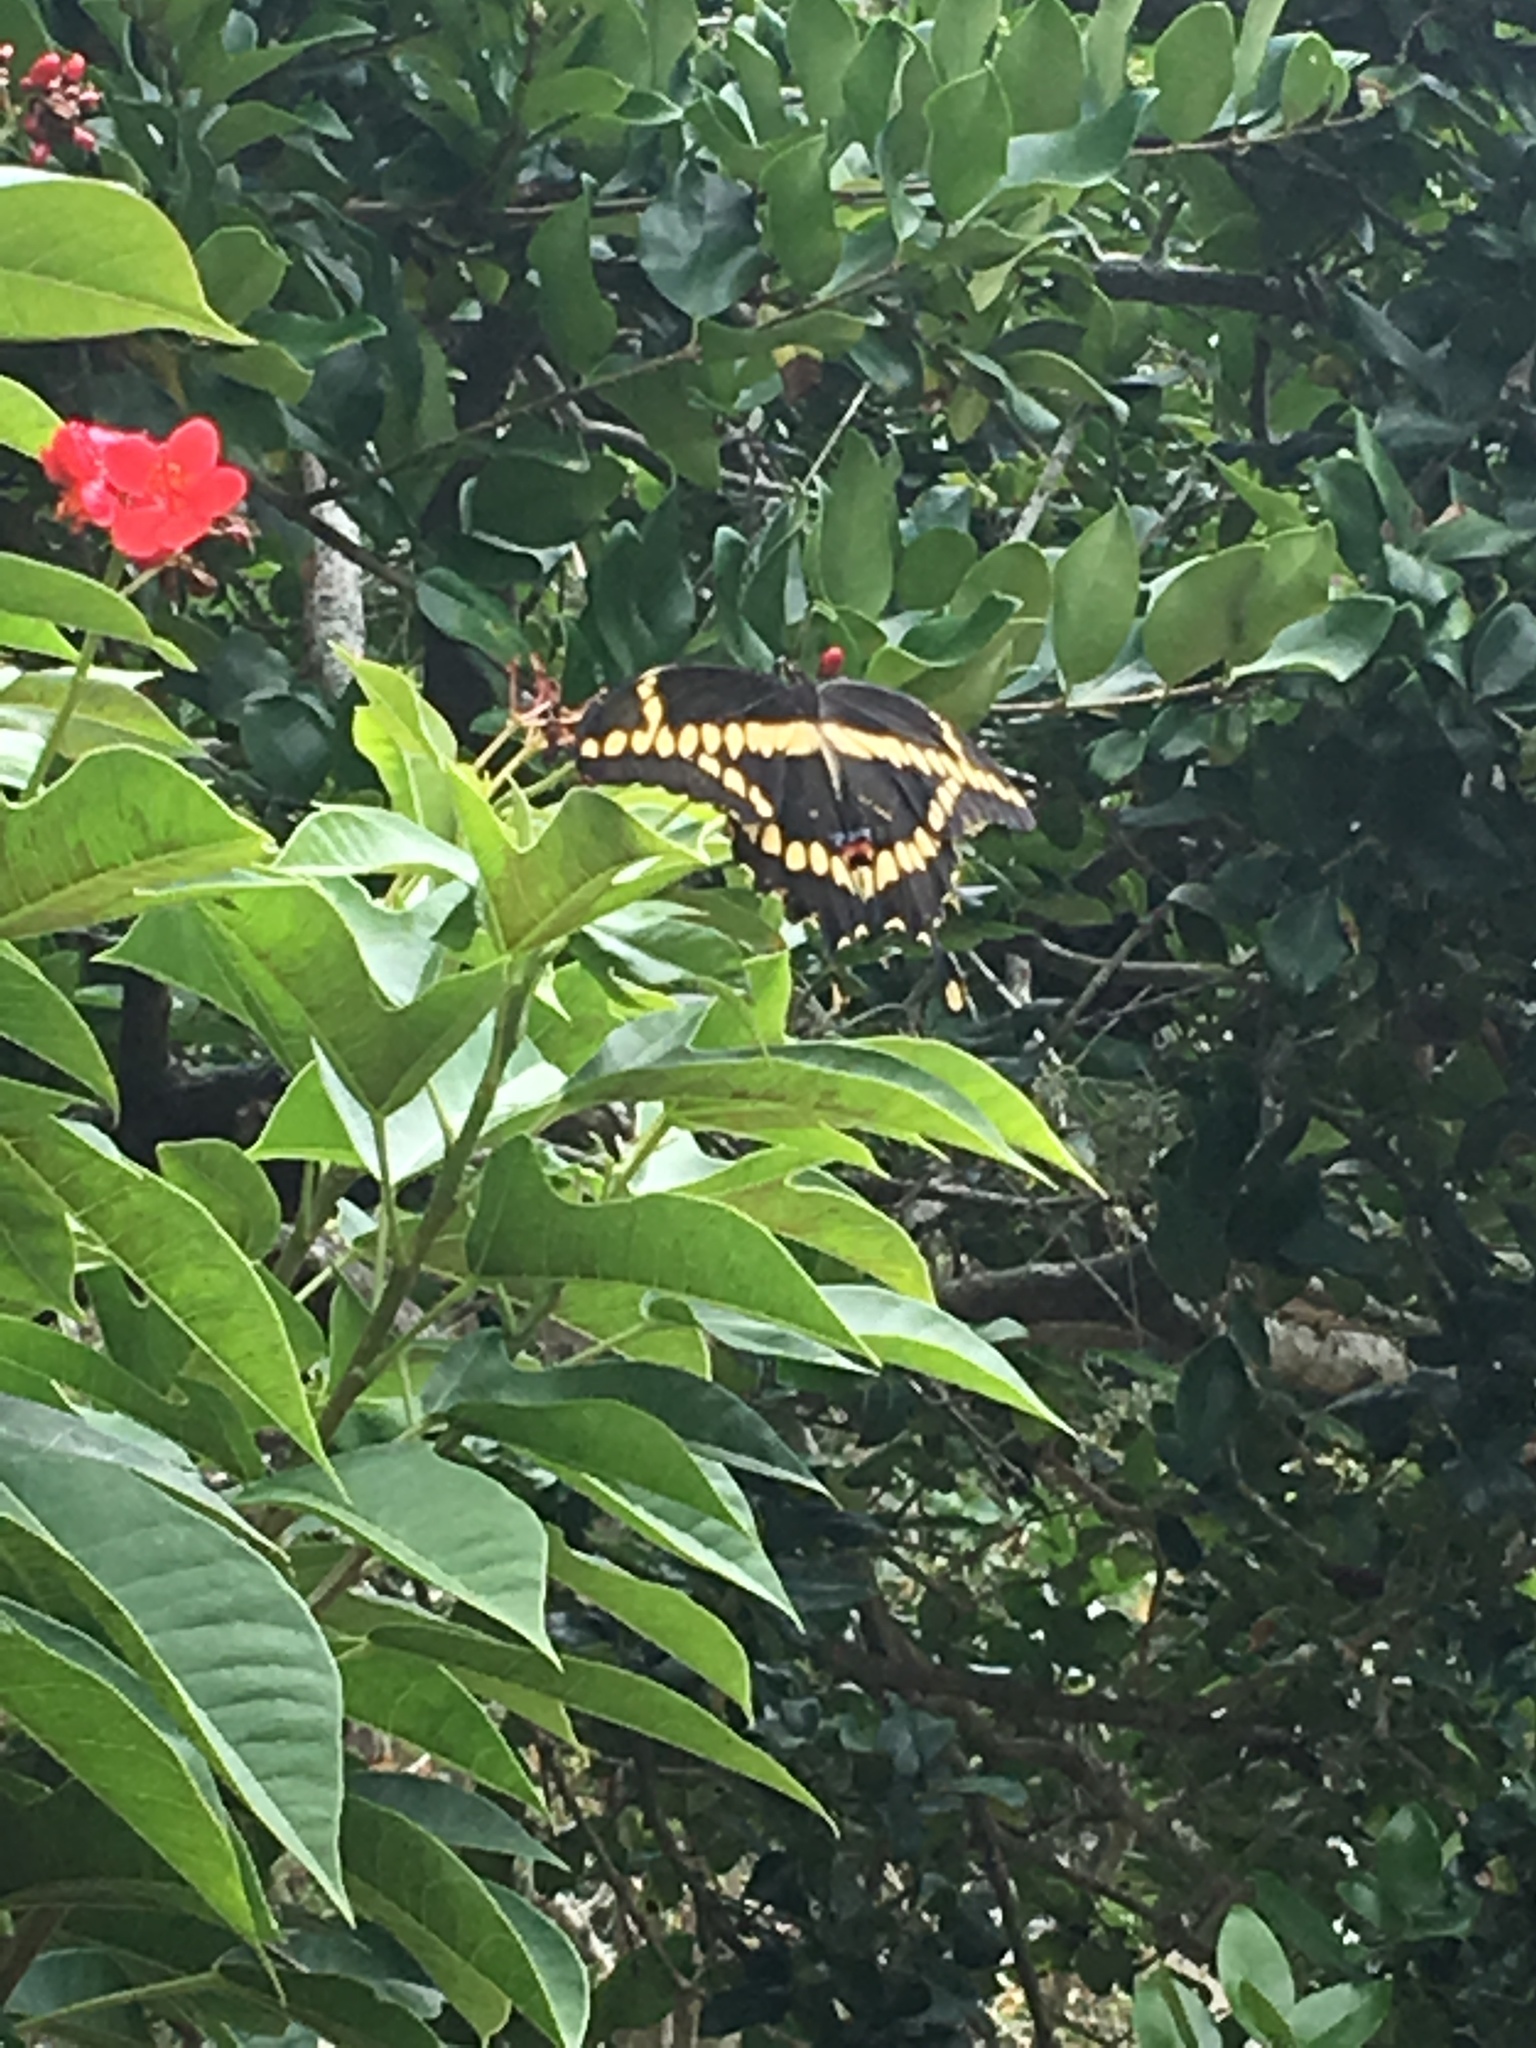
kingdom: Animalia
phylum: Arthropoda
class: Insecta
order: Lepidoptera
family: Papilionidae
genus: Papilio
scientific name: Papilio cresphontes
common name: Giant swallowtail
